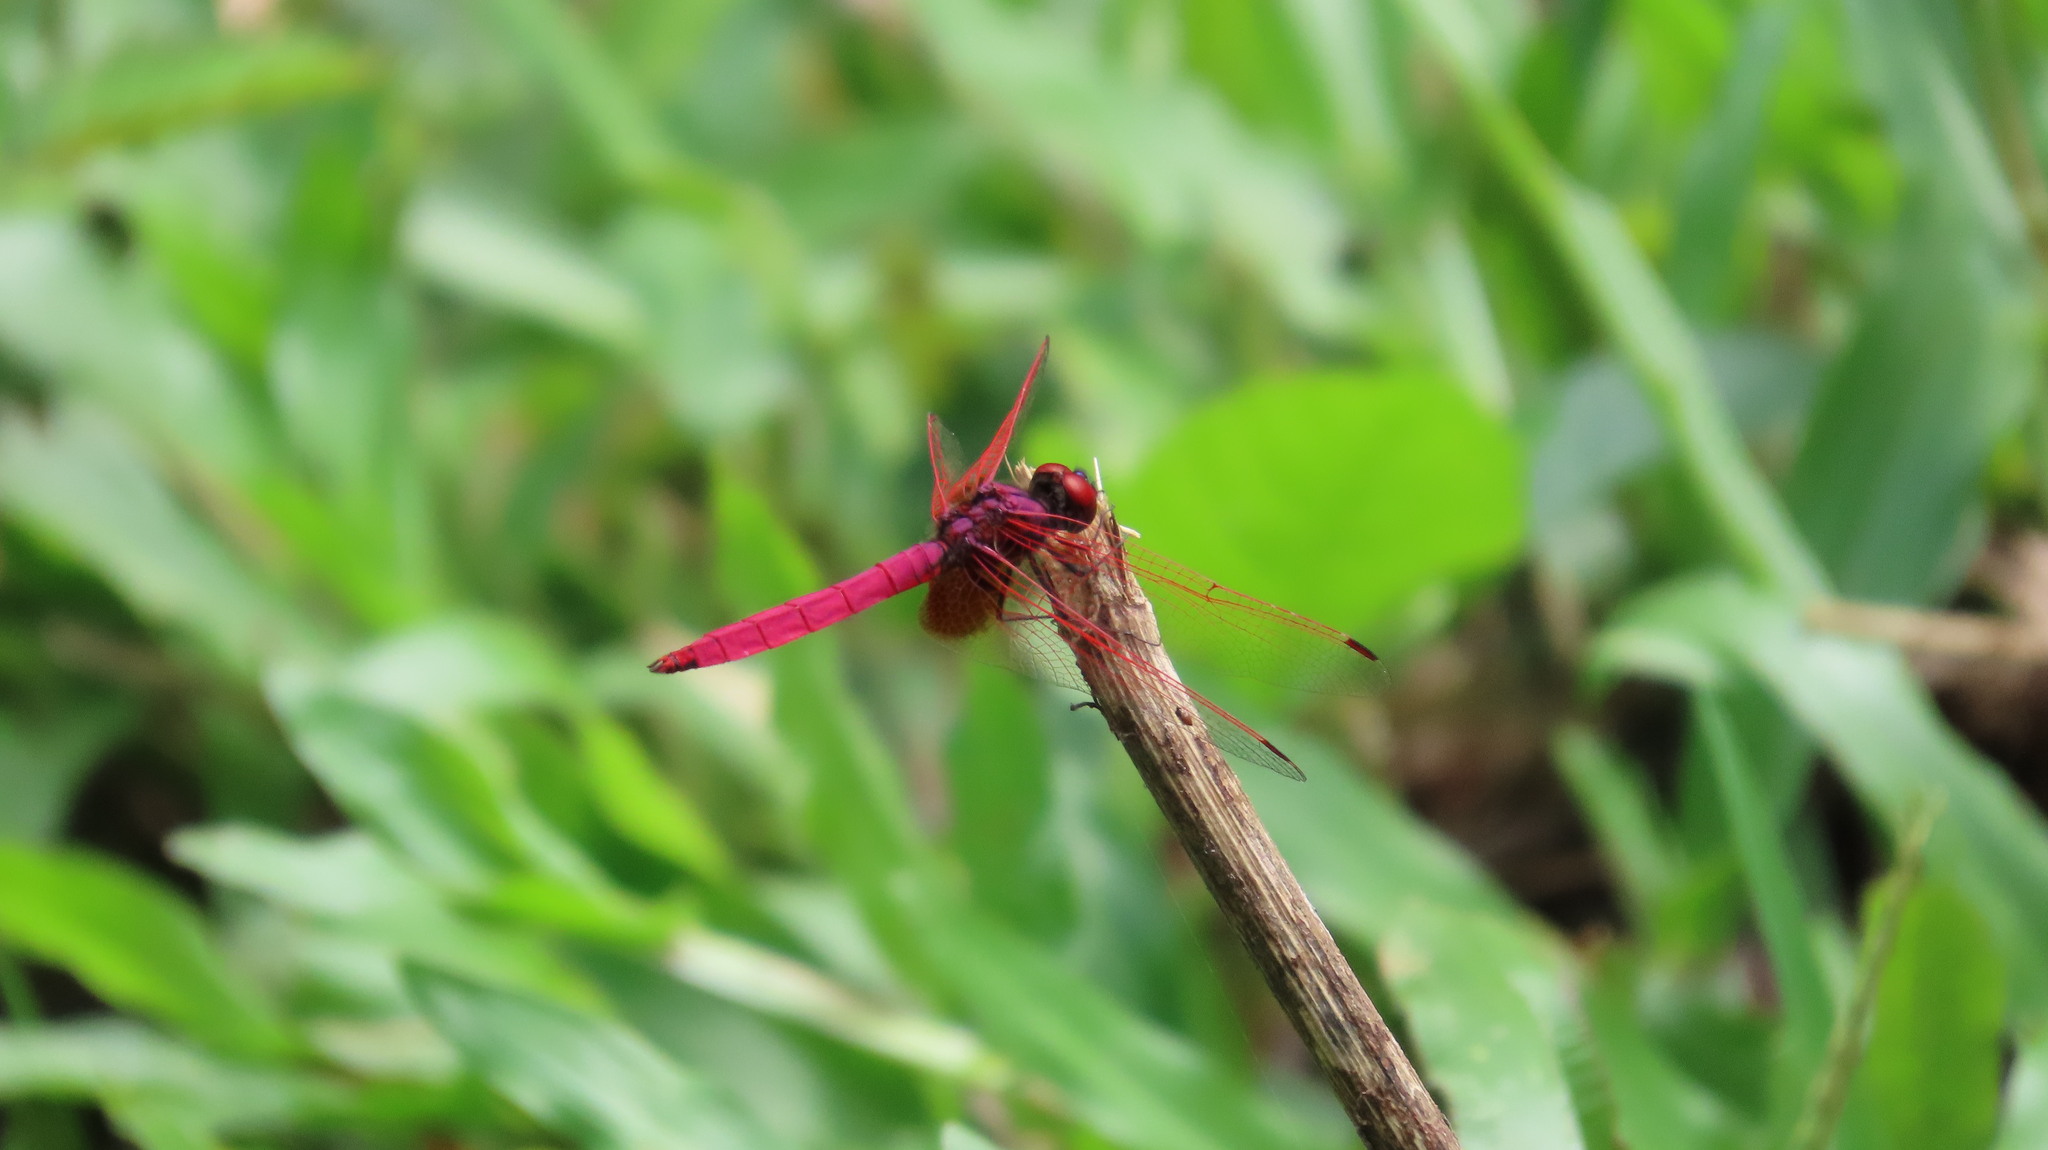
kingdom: Animalia
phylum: Arthropoda
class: Insecta
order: Odonata
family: Libellulidae
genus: Trithemis
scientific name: Trithemis aurora
